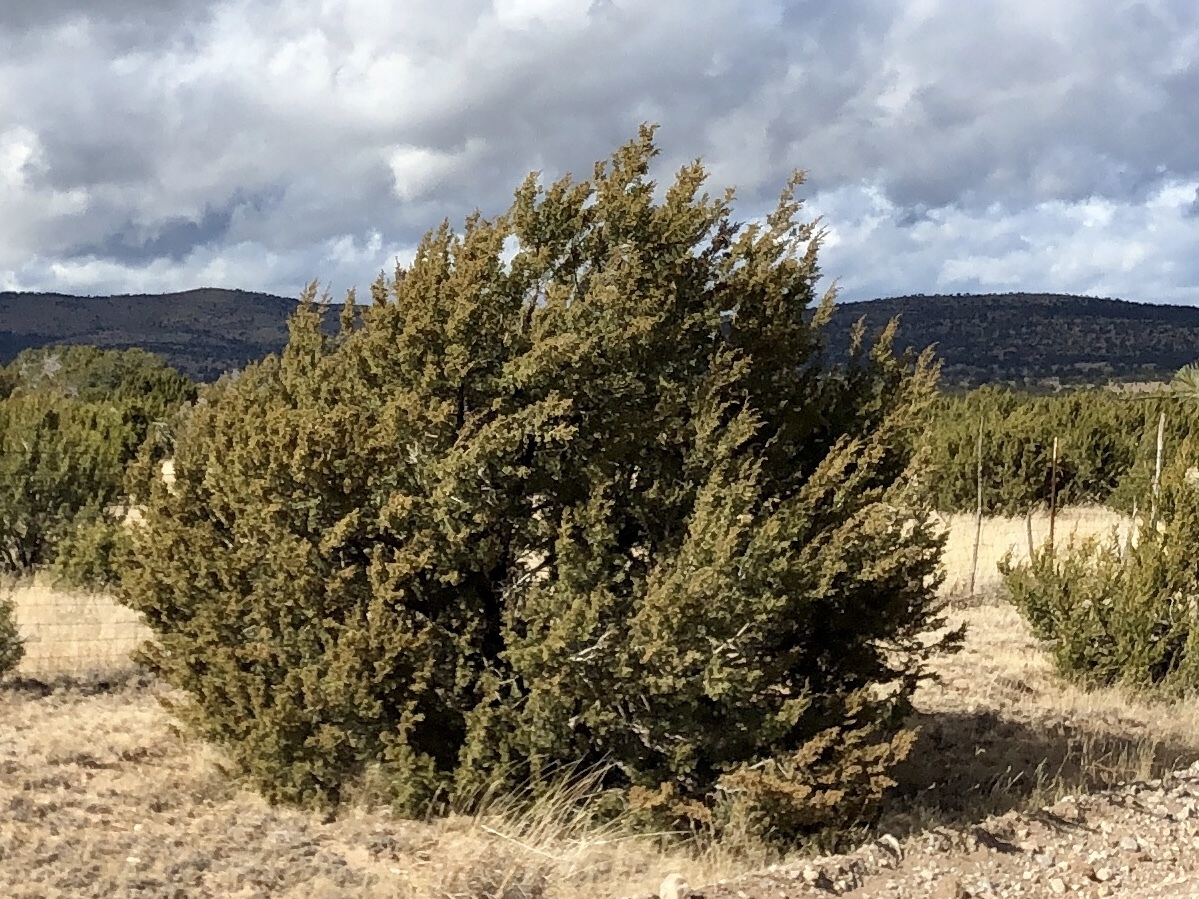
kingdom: Plantae
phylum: Tracheophyta
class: Pinopsida
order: Pinales
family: Cupressaceae
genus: Juniperus
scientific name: Juniperus monosperma
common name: One-seed juniper
